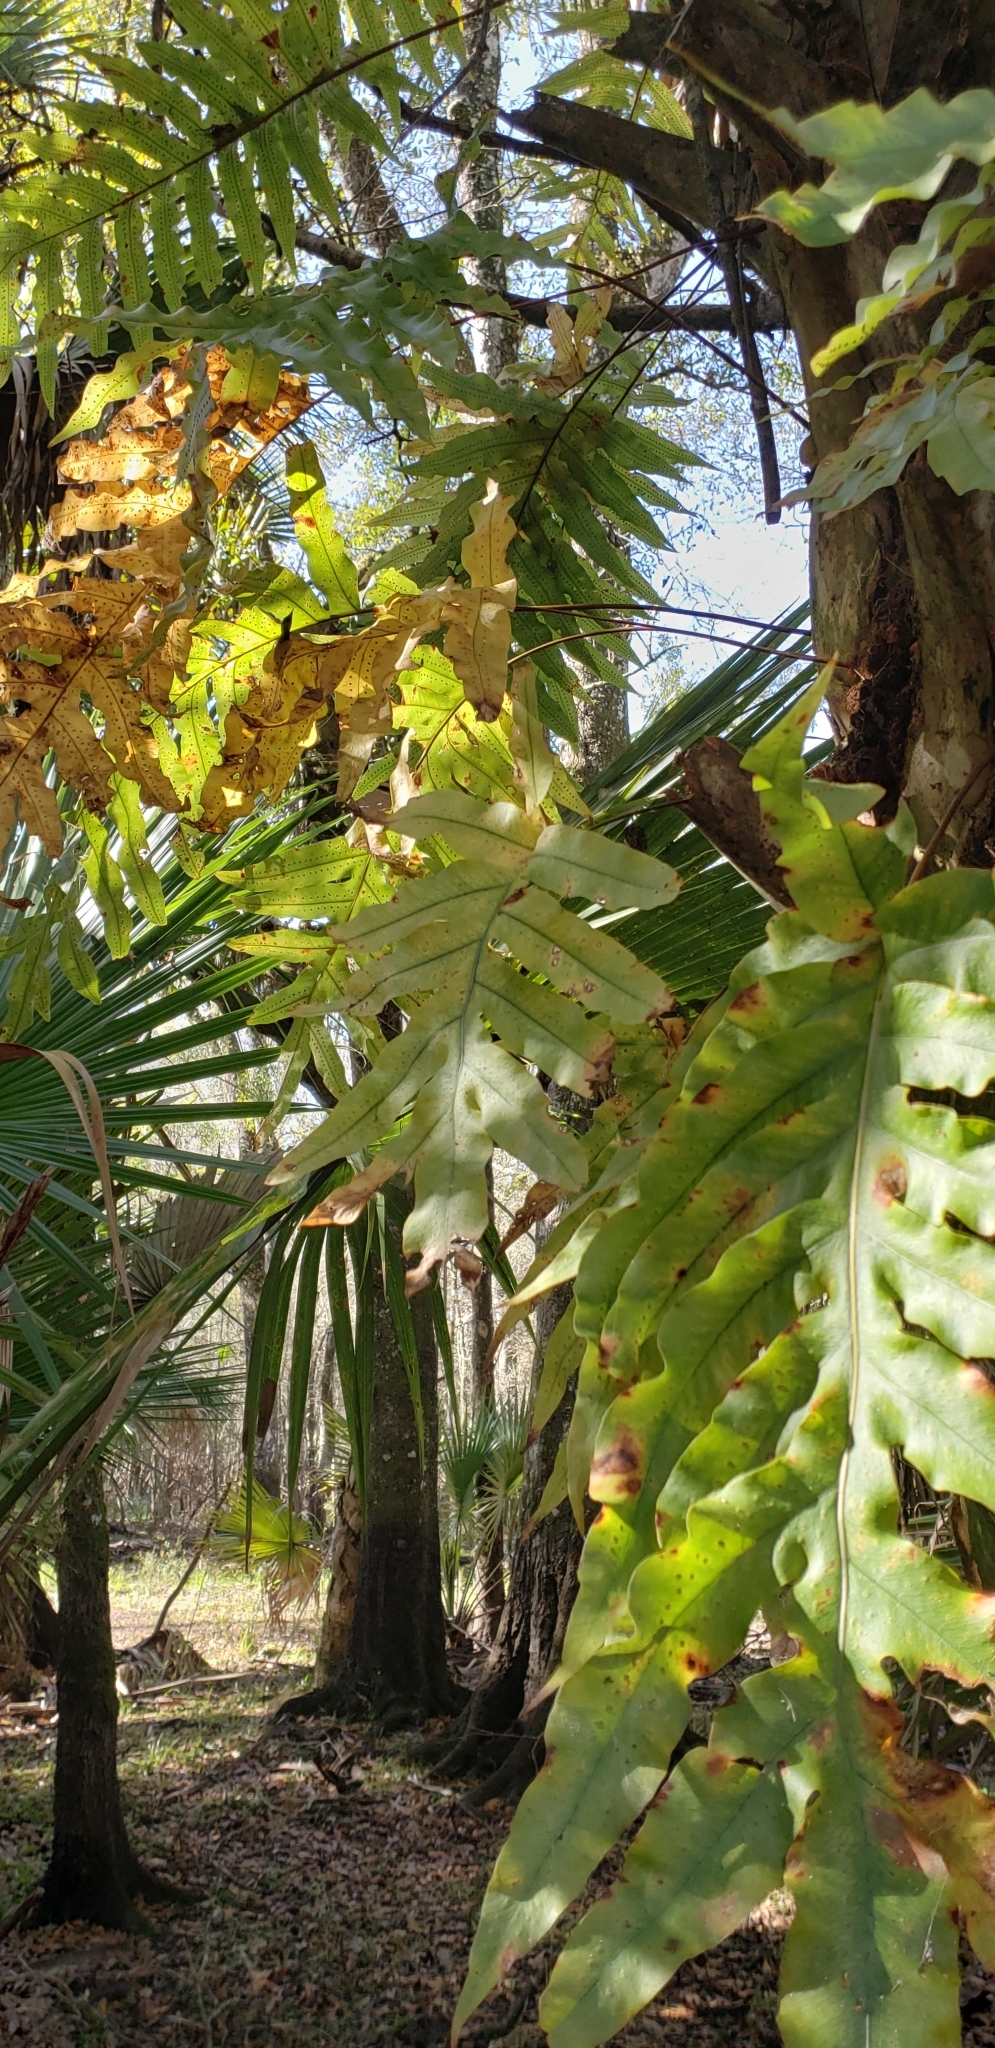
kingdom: Plantae
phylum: Tracheophyta
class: Polypodiopsida
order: Polypodiales
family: Polypodiaceae
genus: Phlebodium
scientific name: Phlebodium aureum
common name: Gold-foot fern
